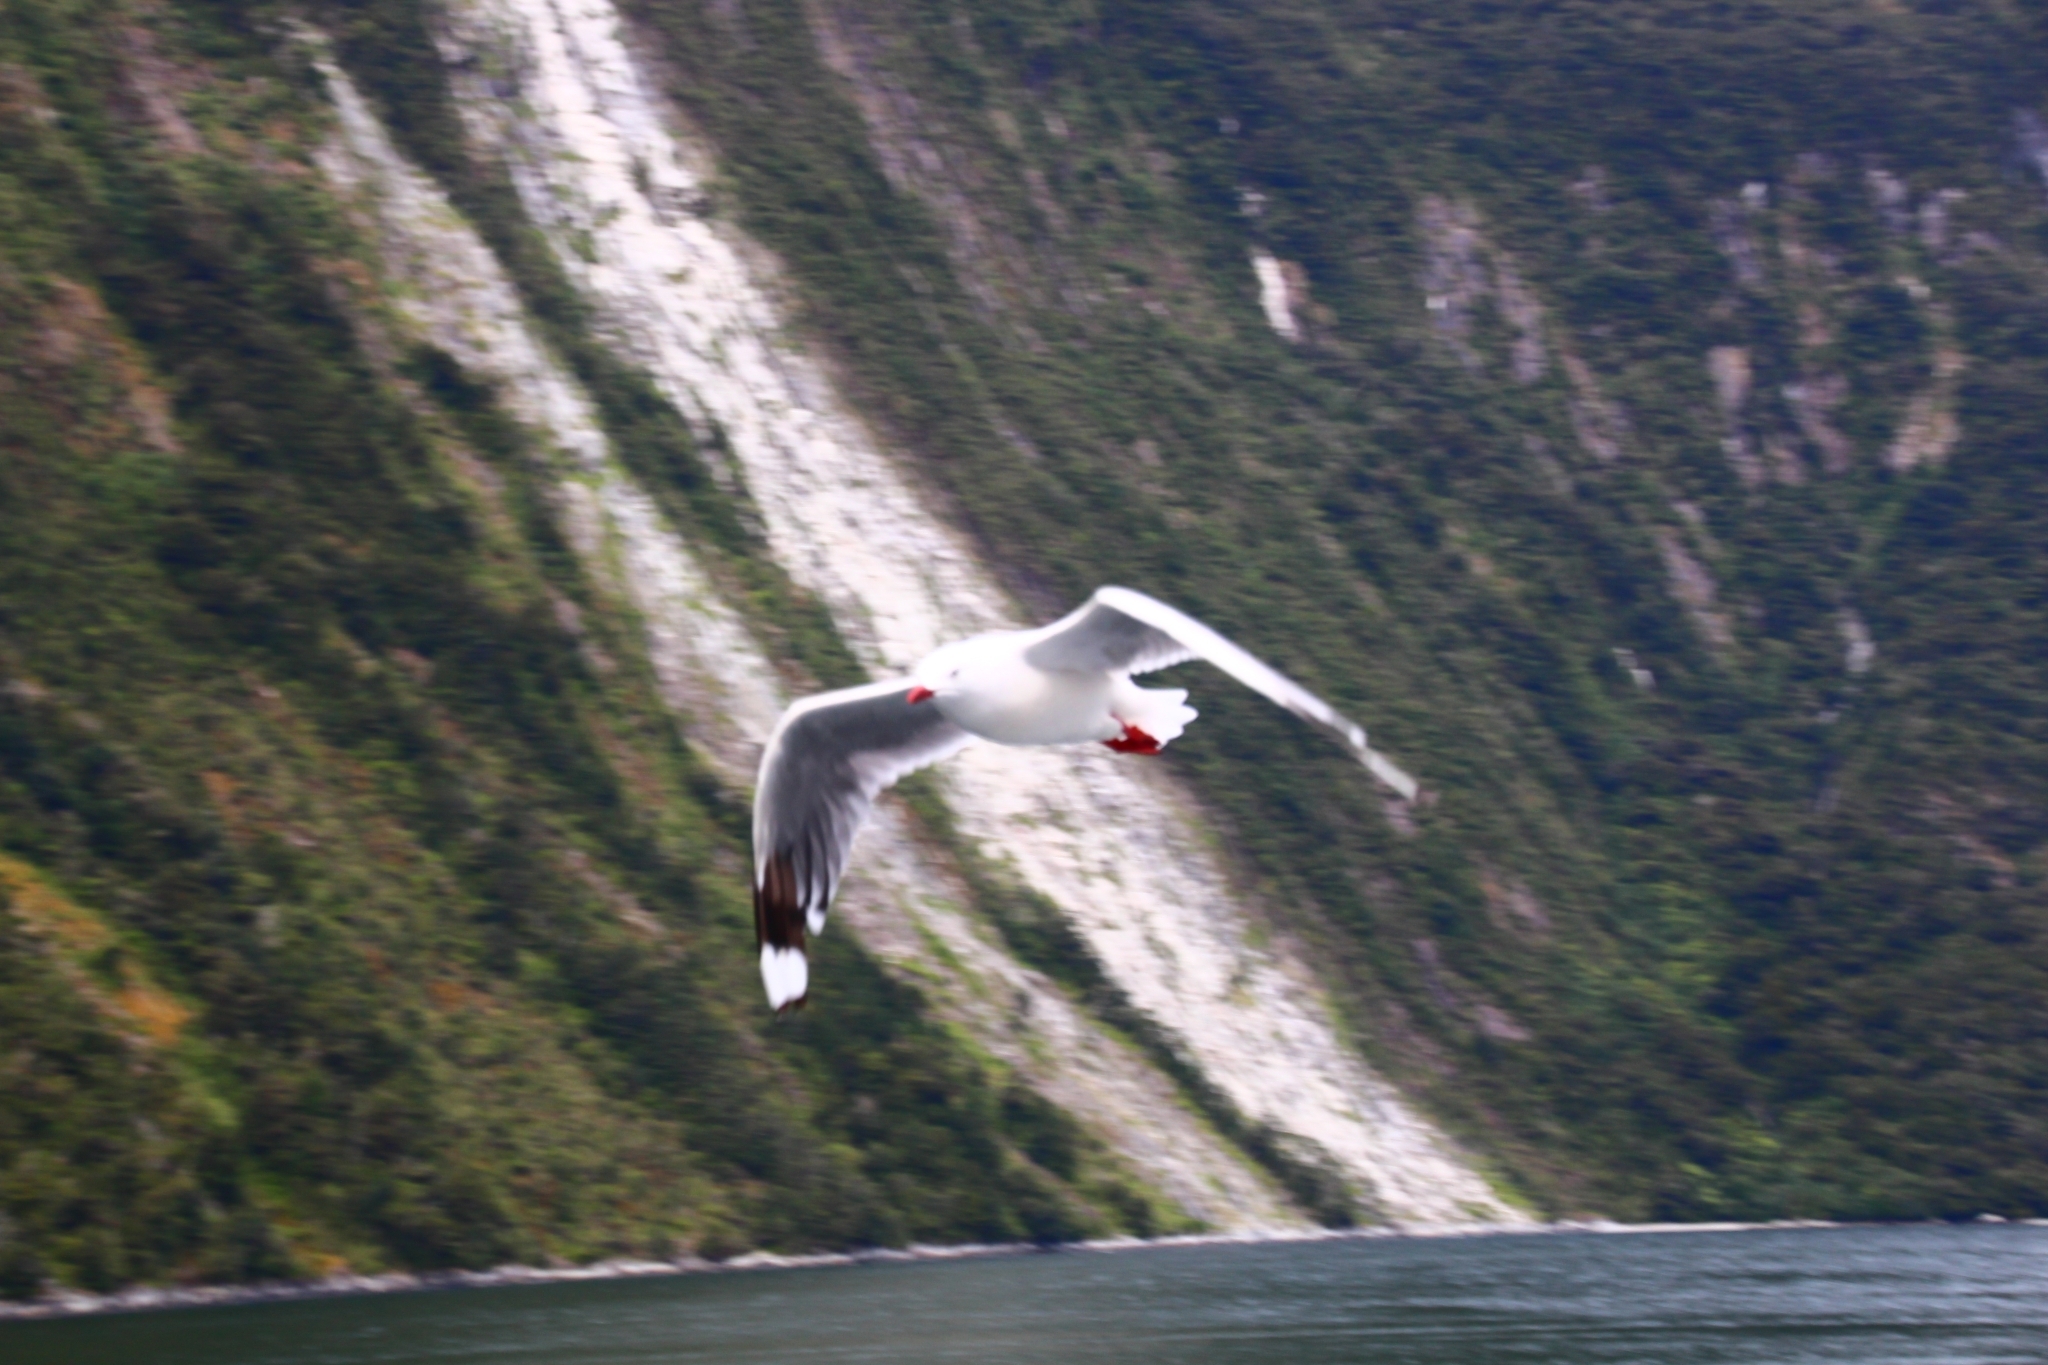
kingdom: Animalia
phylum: Chordata
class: Aves
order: Charadriiformes
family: Laridae
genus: Chroicocephalus
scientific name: Chroicocephalus novaehollandiae
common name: Silver gull
